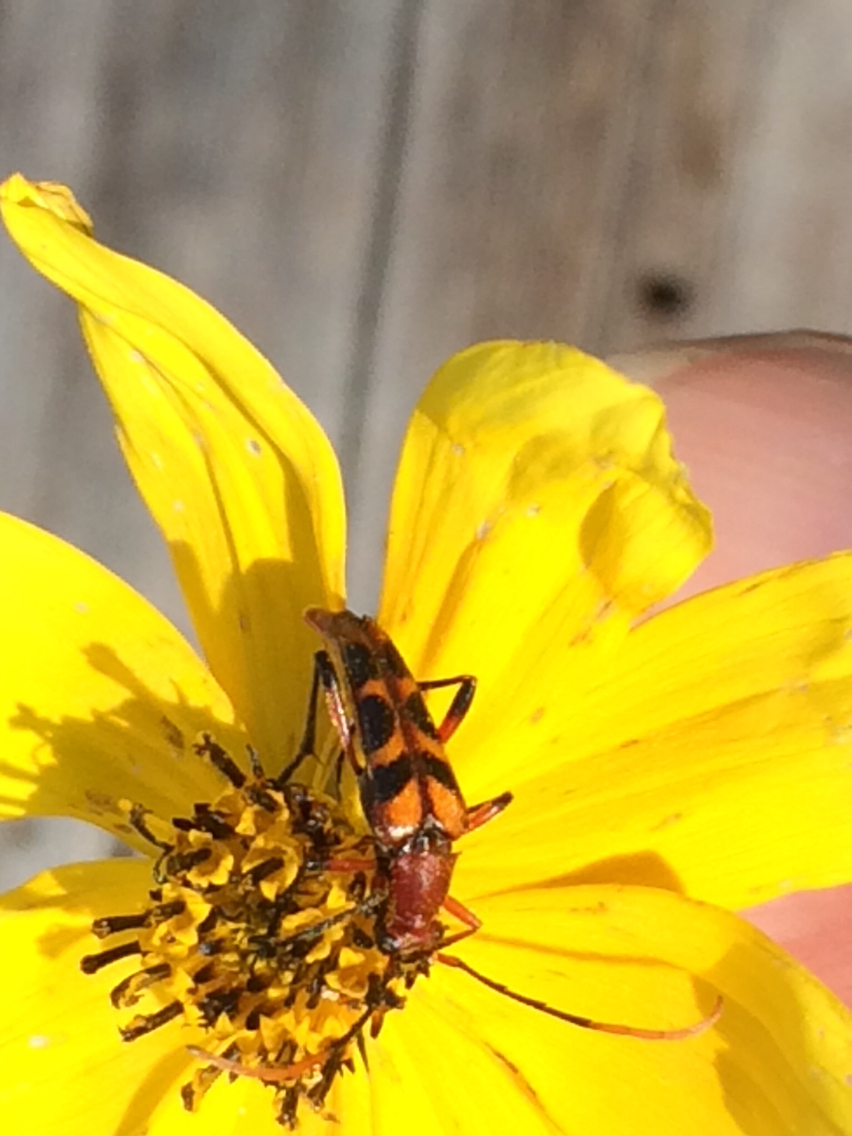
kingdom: Animalia
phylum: Arthropoda
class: Insecta
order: Coleoptera
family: Cerambycidae
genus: Strangalia
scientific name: Strangalia sexnotata
